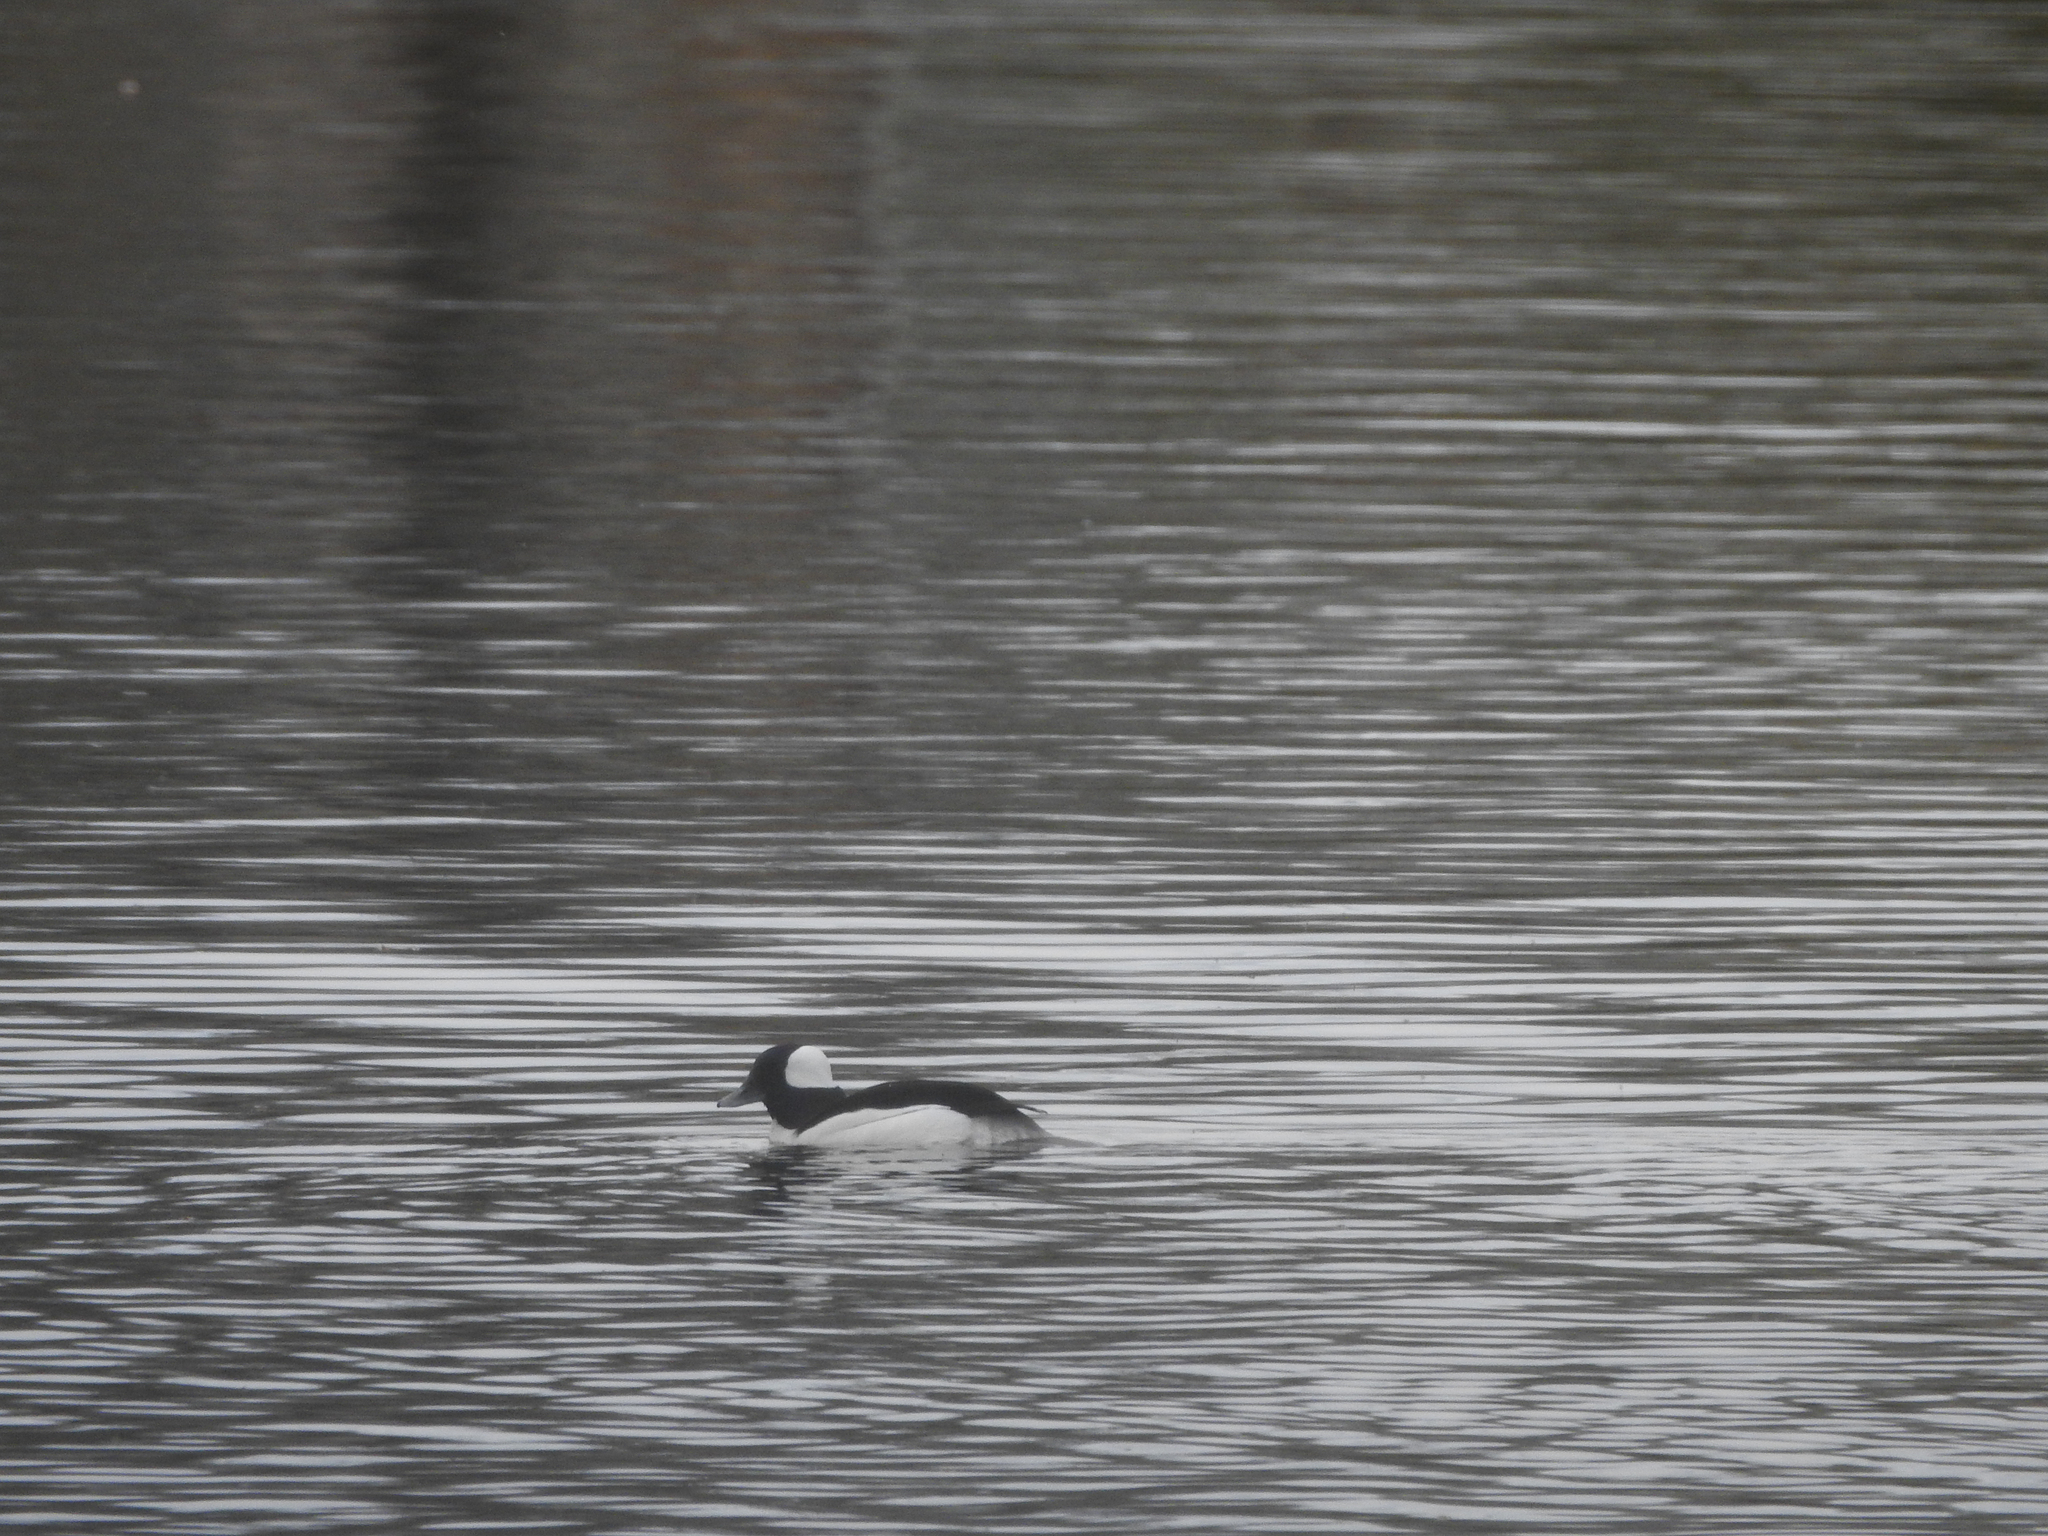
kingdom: Animalia
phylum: Chordata
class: Aves
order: Anseriformes
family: Anatidae
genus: Bucephala
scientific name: Bucephala albeola
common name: Bufflehead
